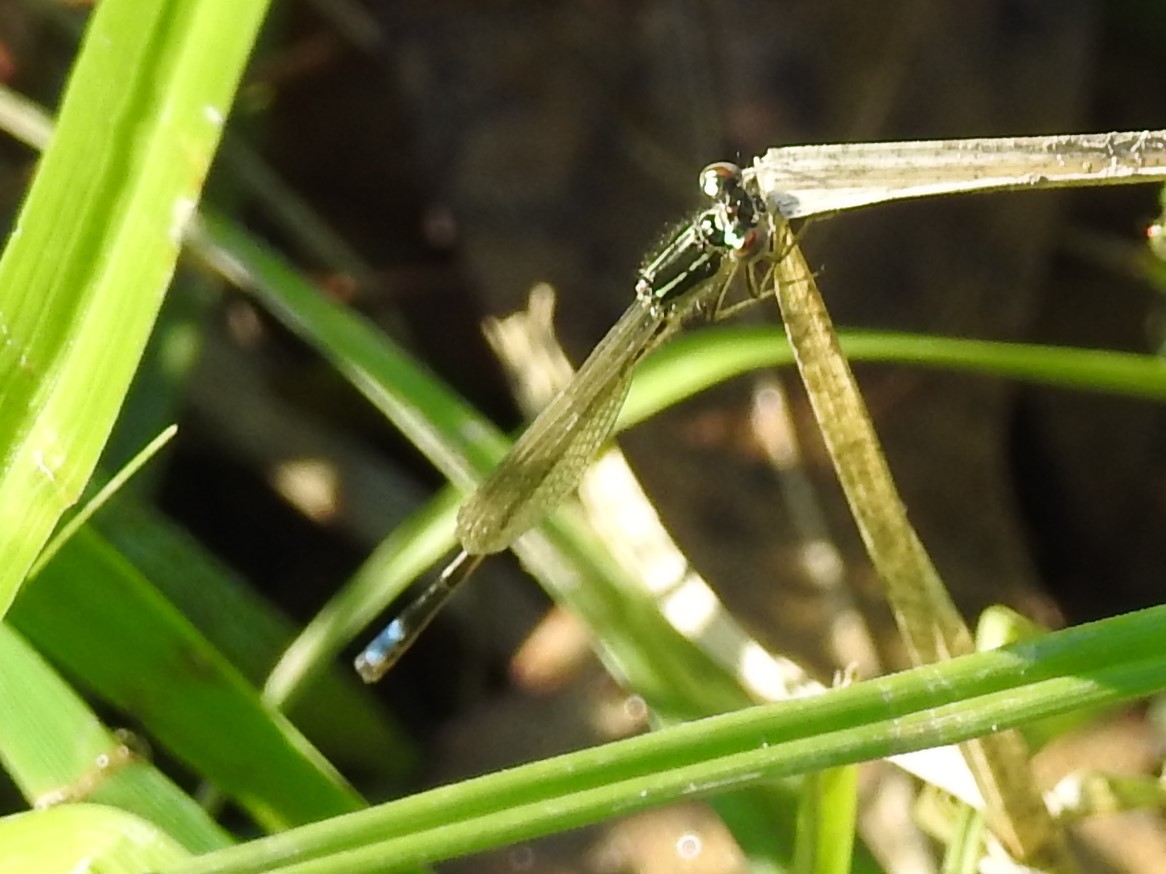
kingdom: Animalia
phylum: Arthropoda
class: Insecta
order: Odonata
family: Coenagrionidae
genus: Ischnura
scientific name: Ischnura verticalis
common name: Eastern forktail
